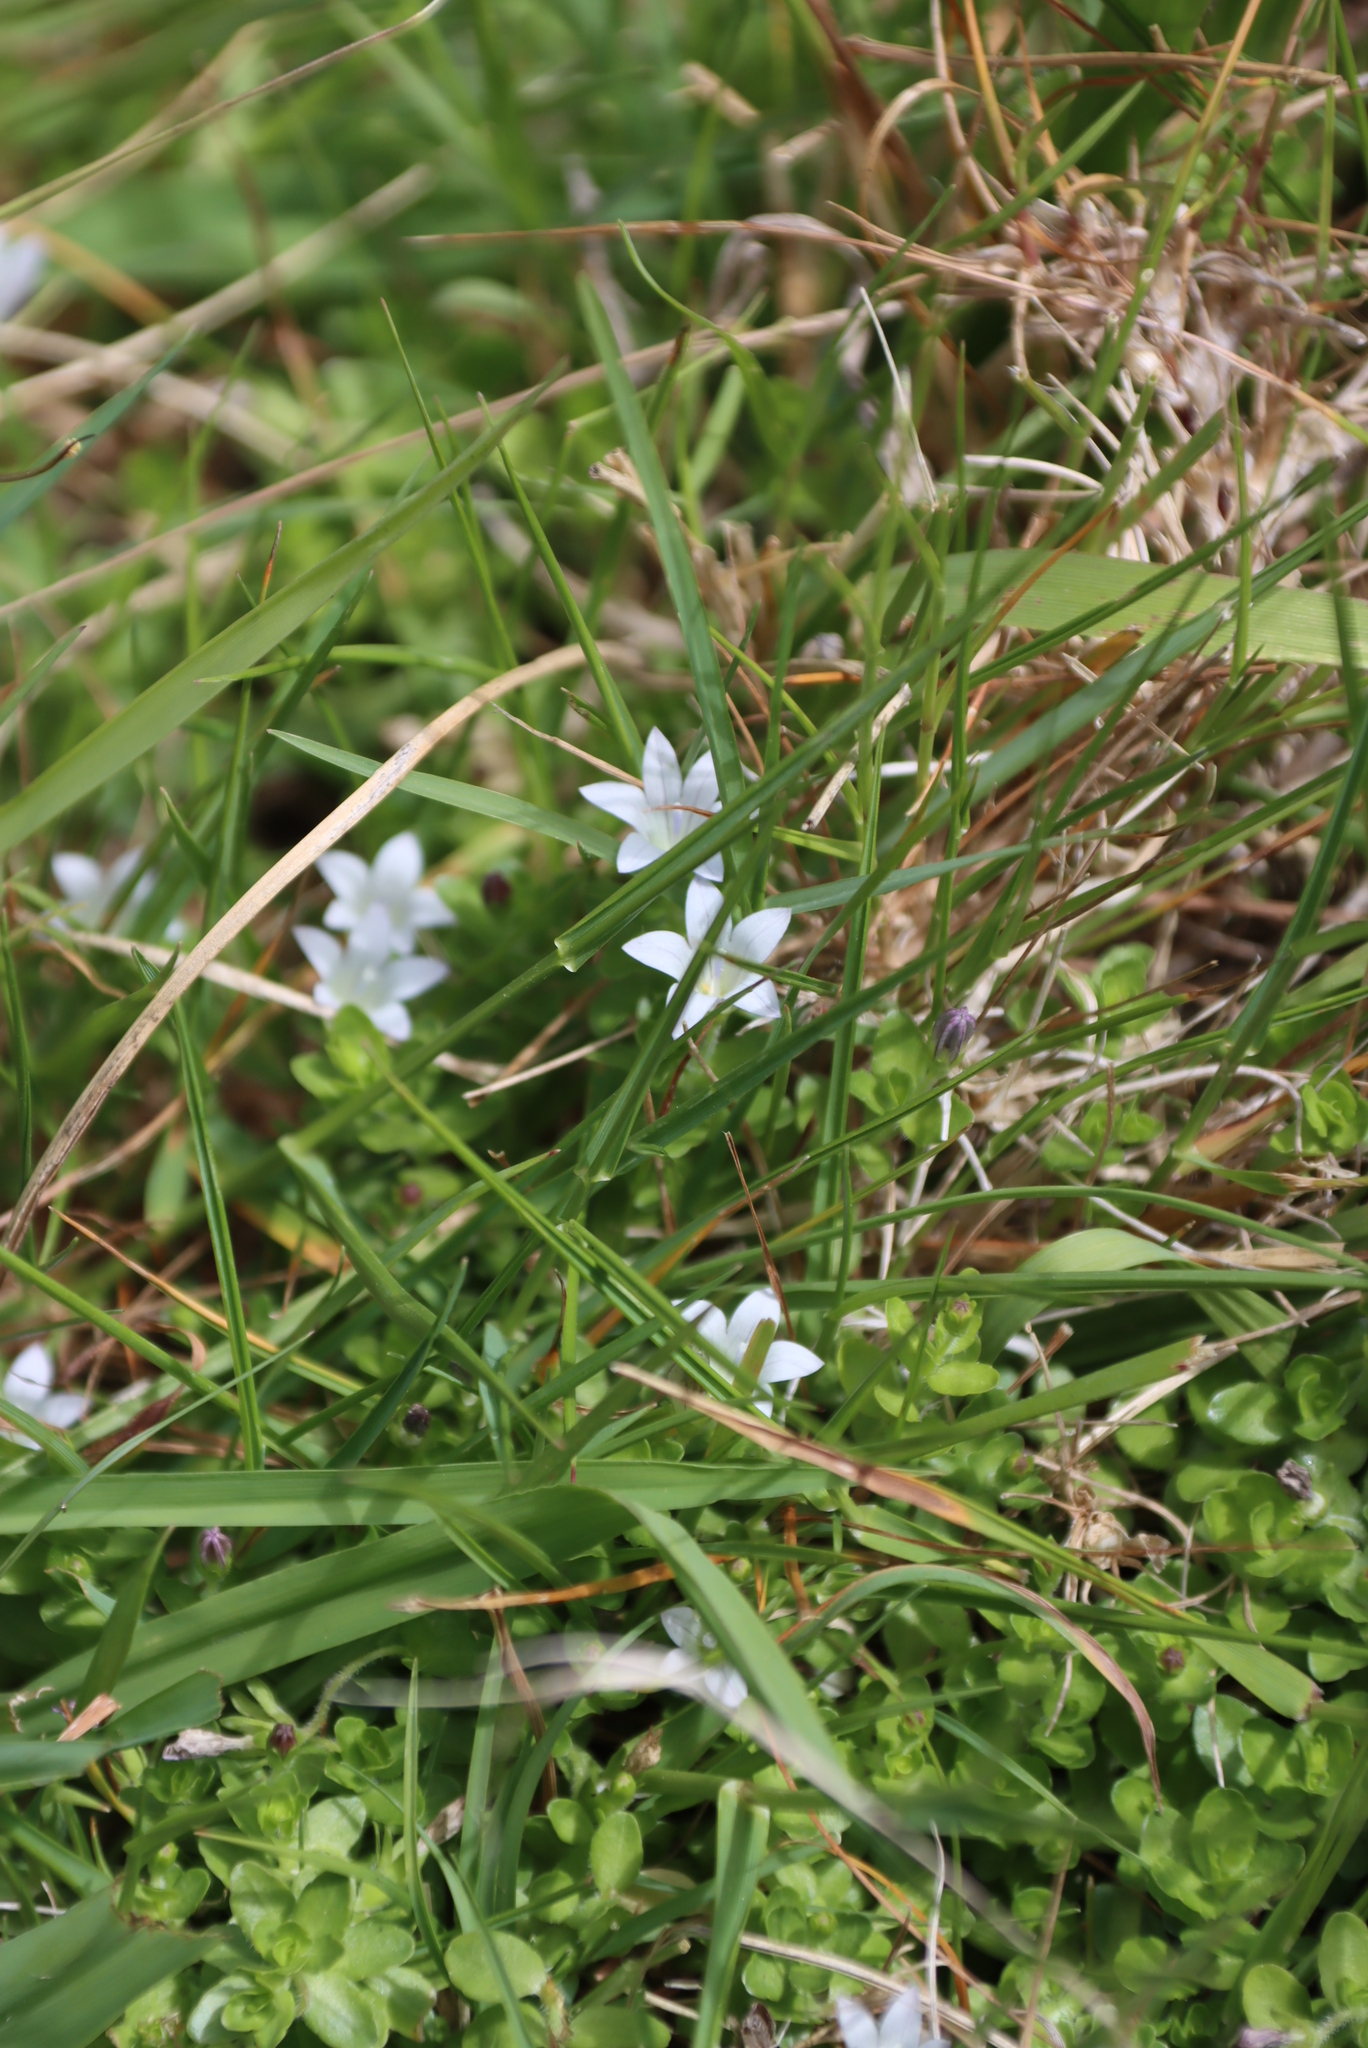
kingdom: Plantae
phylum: Tracheophyta
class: Magnoliopsida
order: Asterales
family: Campanulaceae
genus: Wahlenbergia
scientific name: Wahlenbergia procumbens
